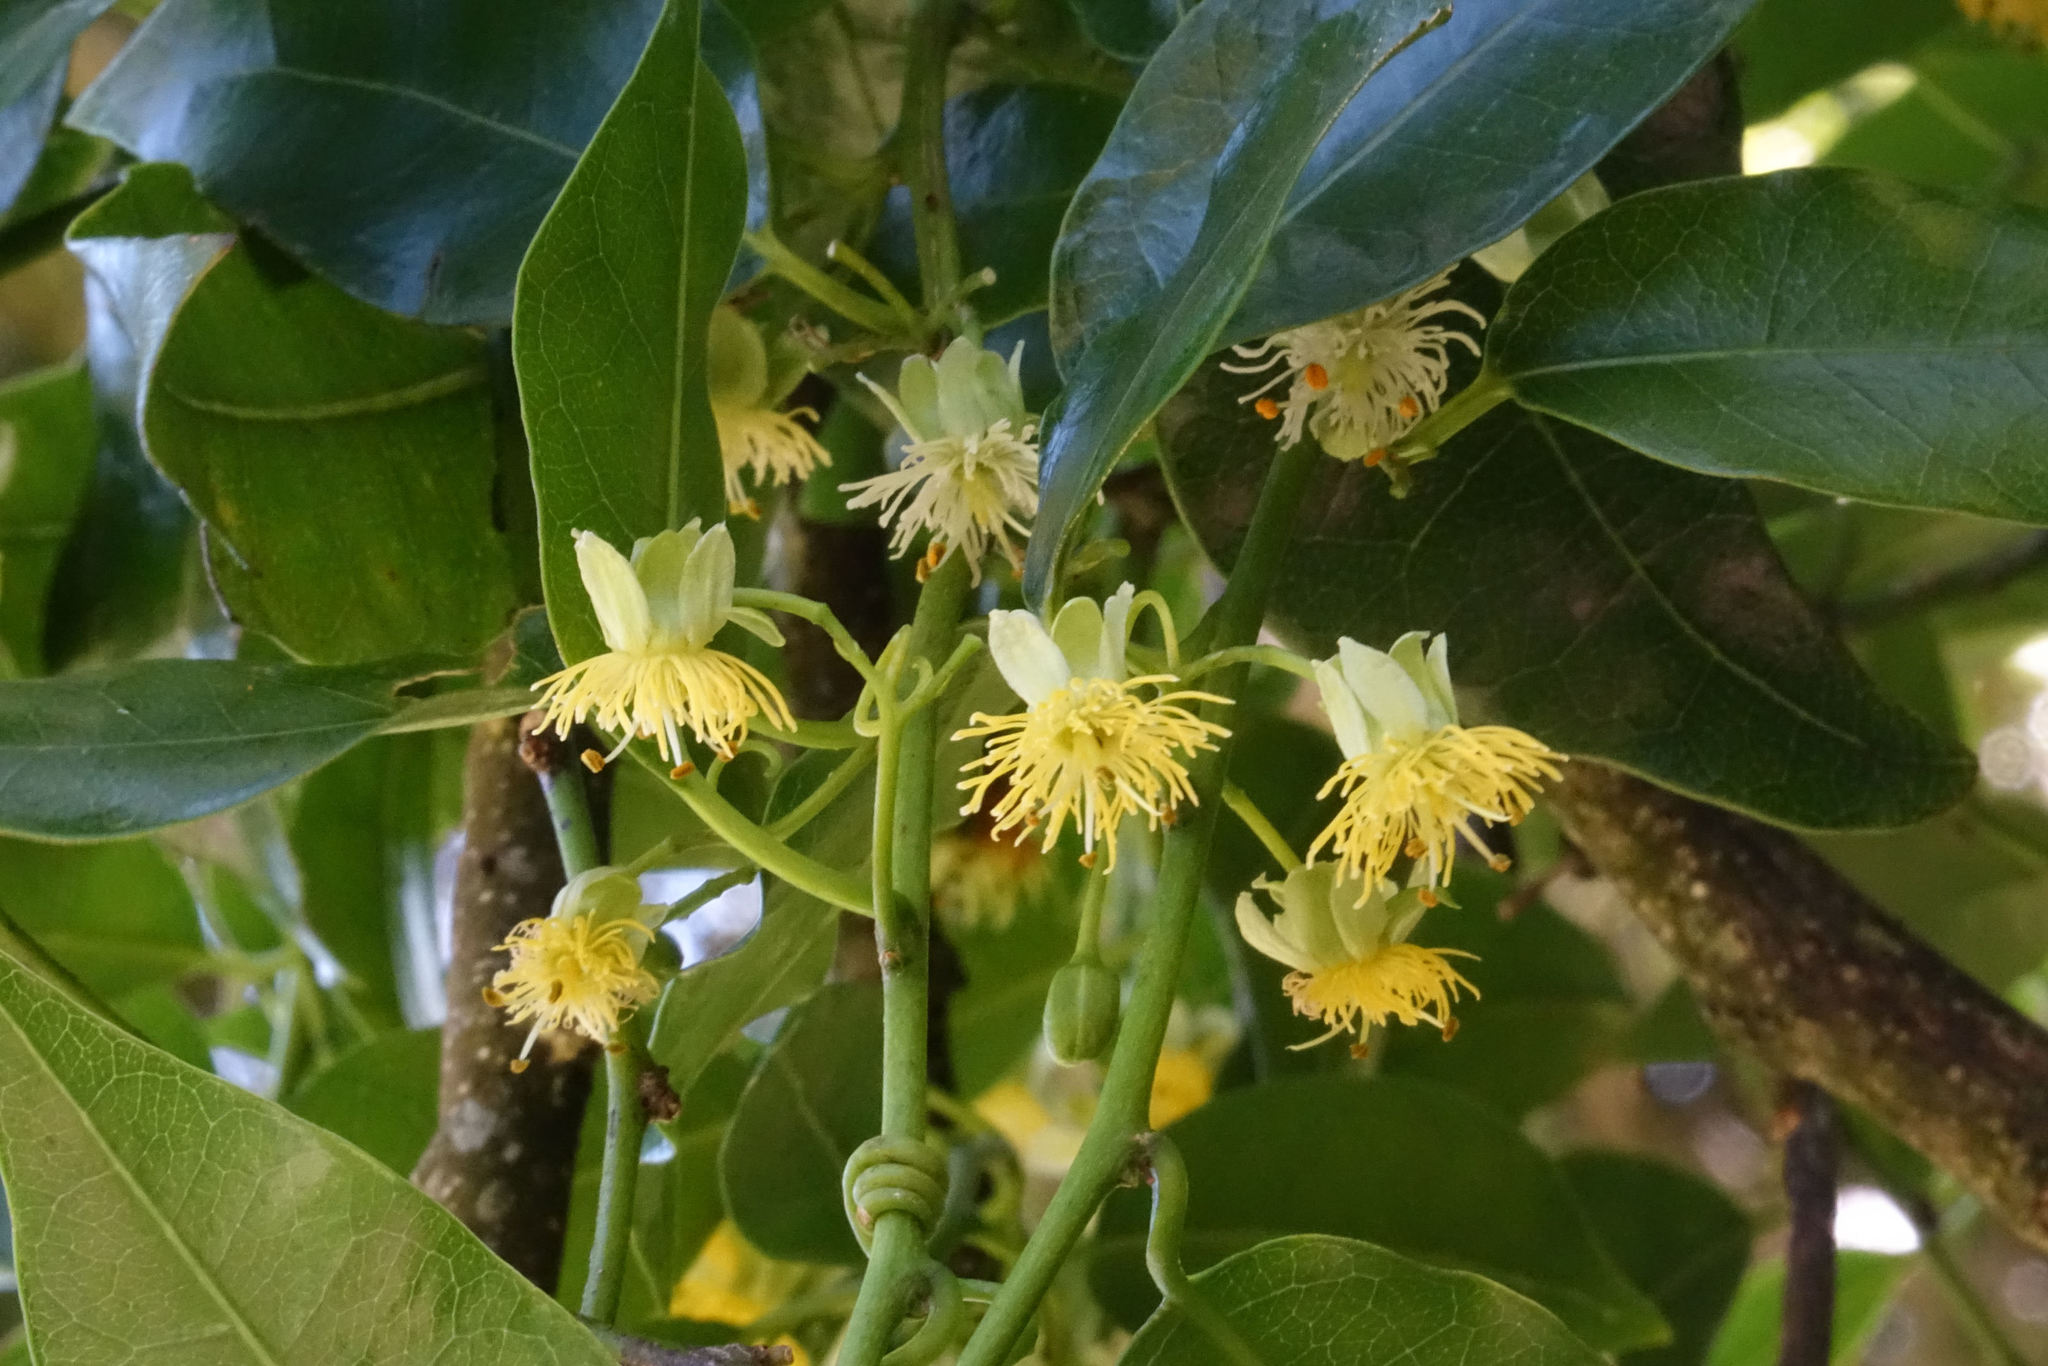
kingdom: Plantae
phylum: Tracheophyta
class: Magnoliopsida
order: Malpighiales
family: Passifloraceae
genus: Passiflora
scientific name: Passiflora tetrandra
